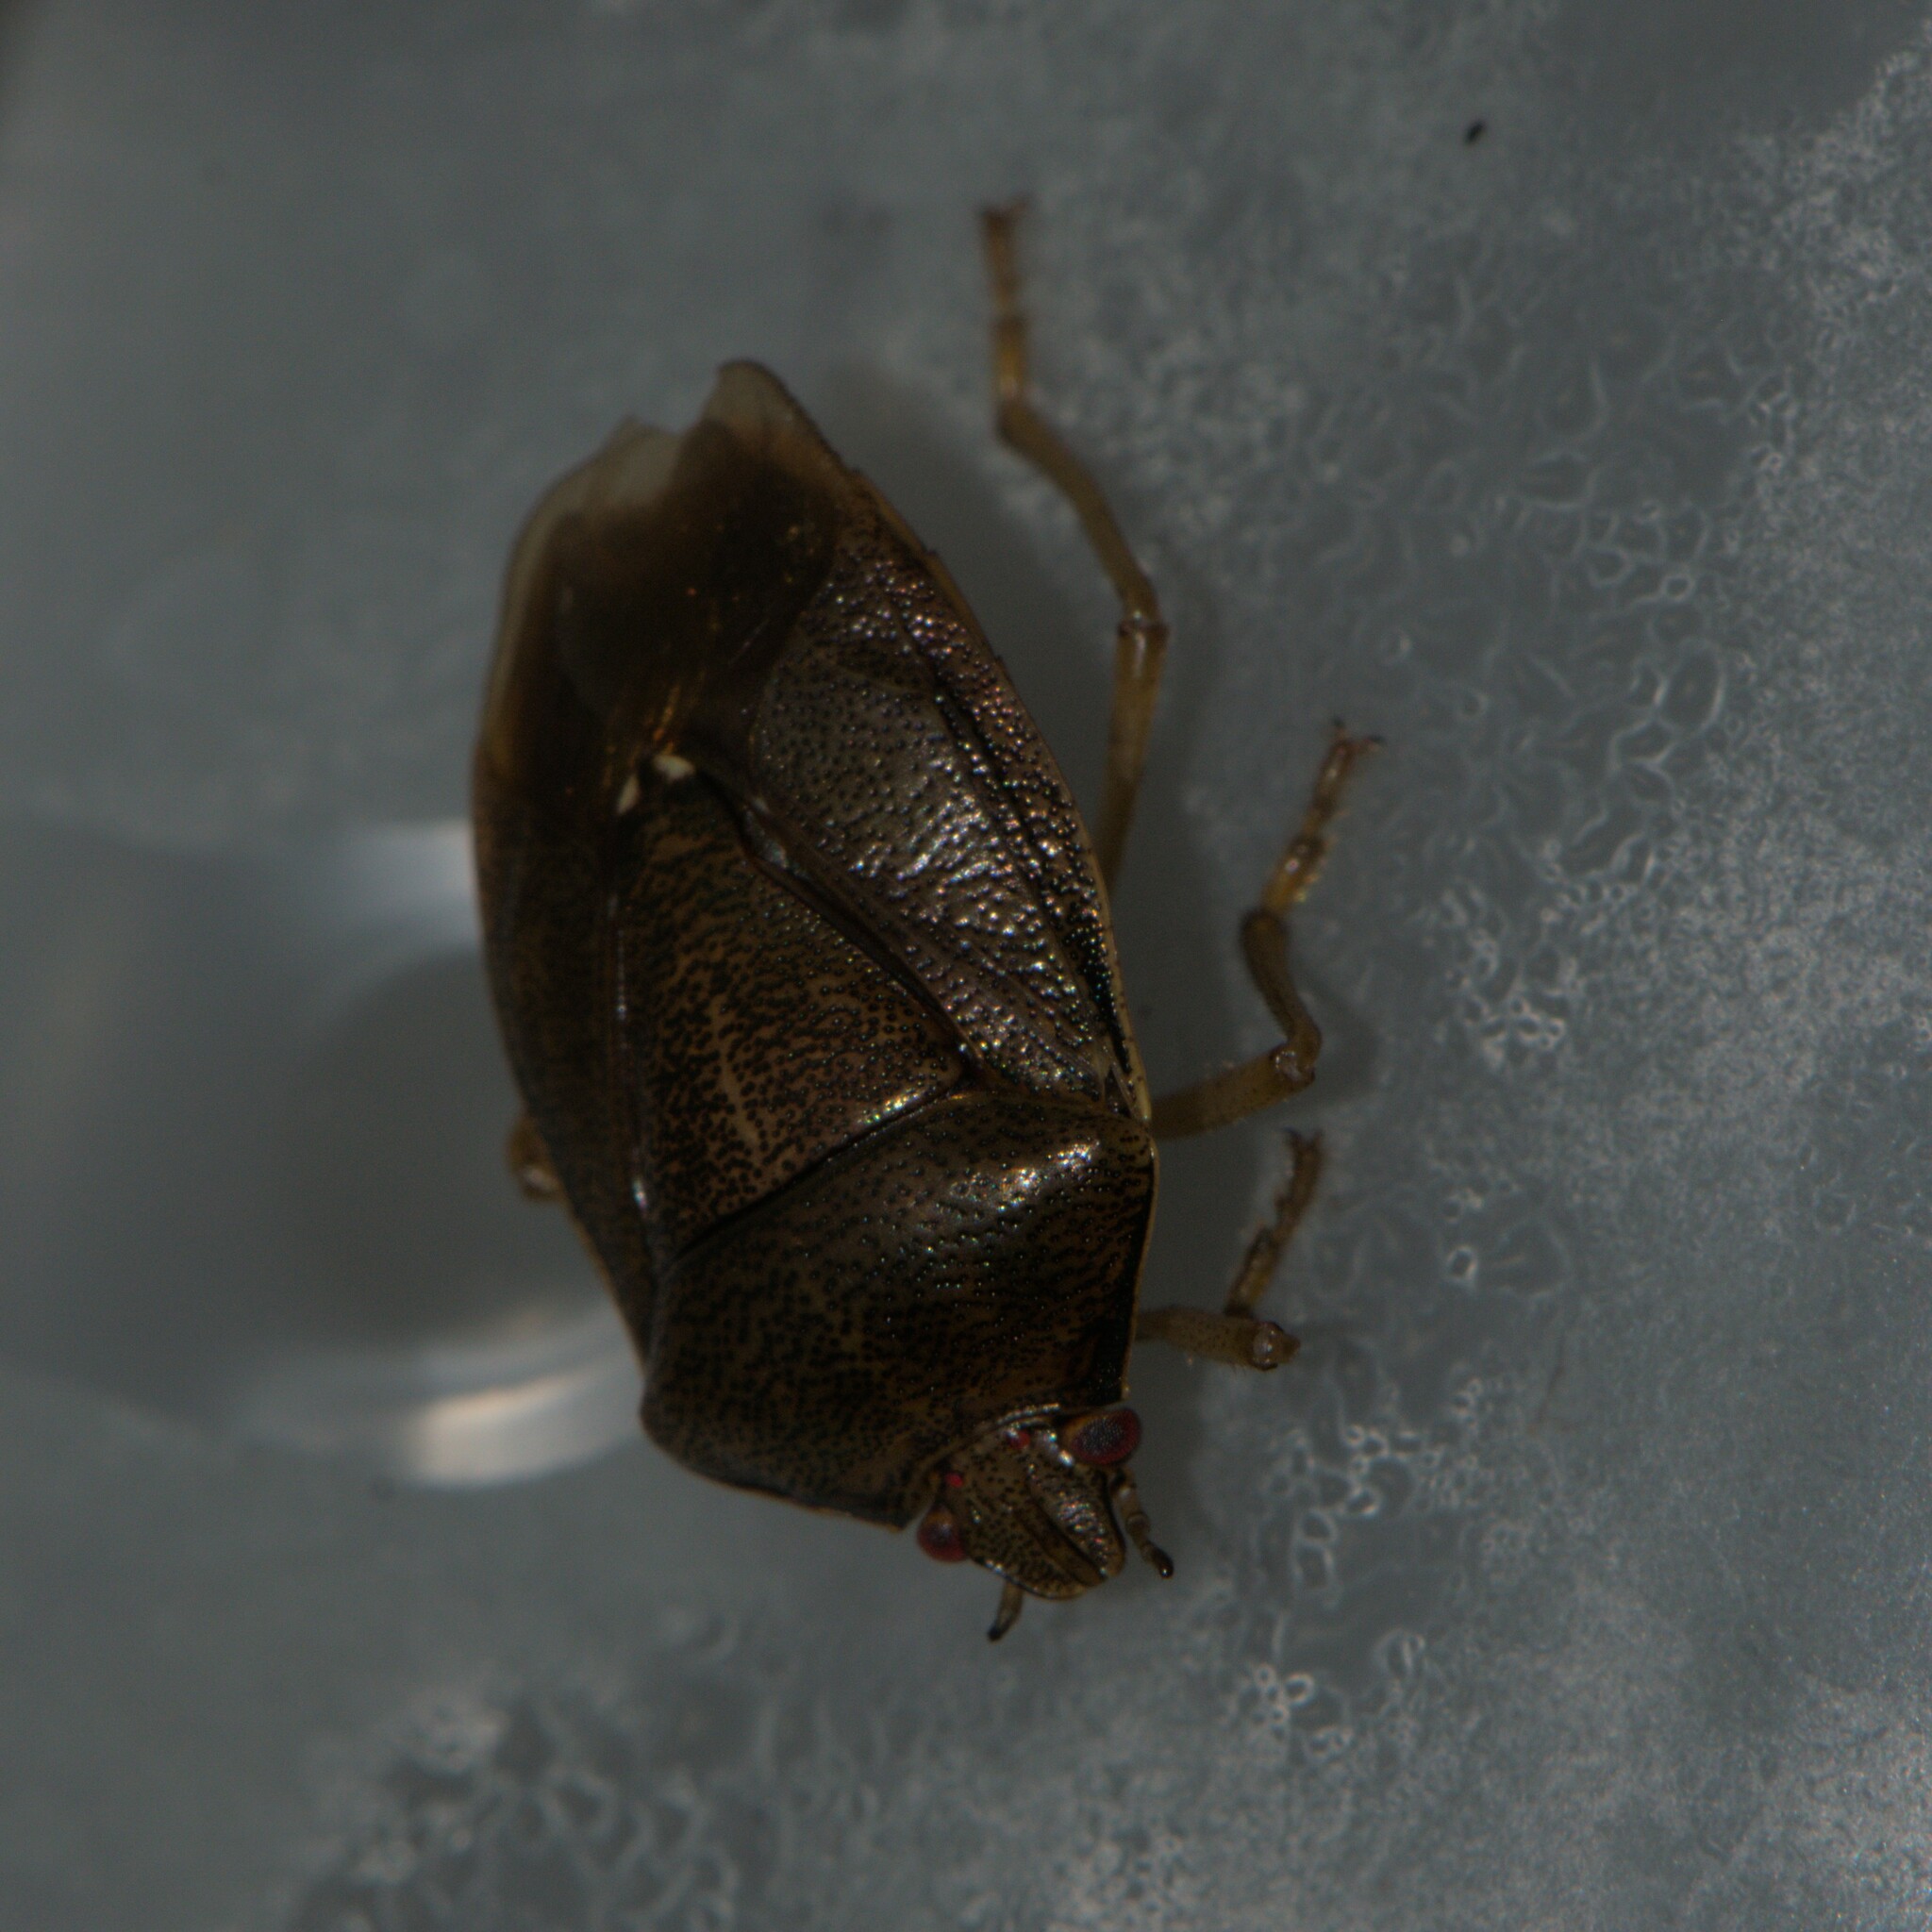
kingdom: Animalia
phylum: Arthropoda
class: Insecta
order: Hemiptera
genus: Phavorinus
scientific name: Phavorinus
